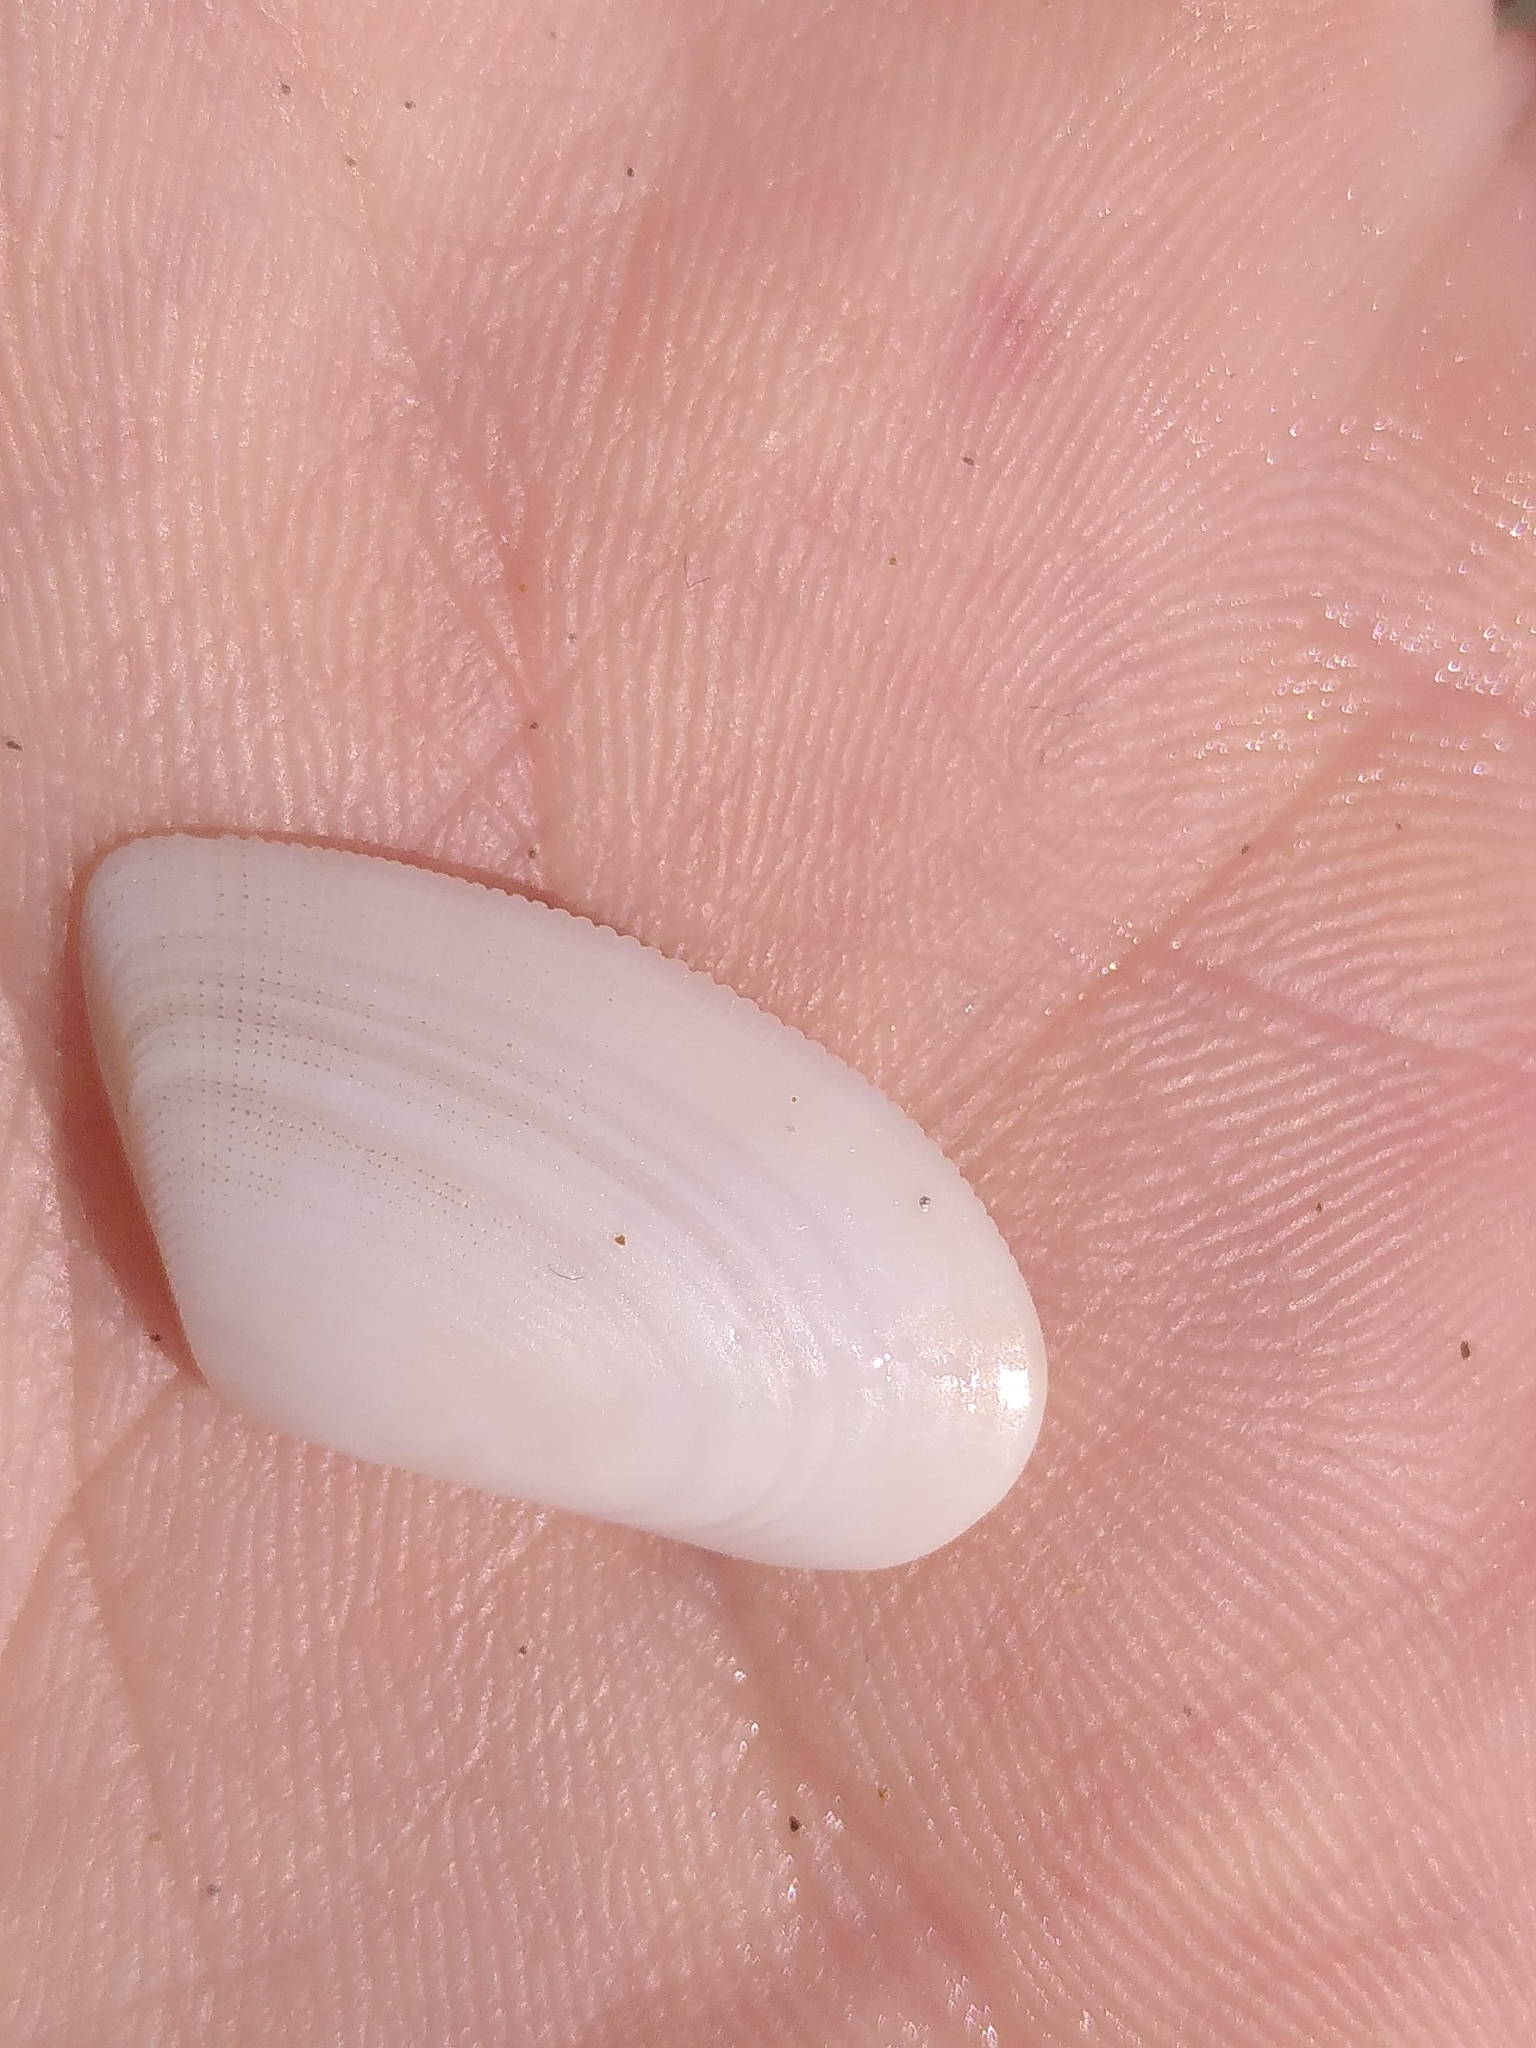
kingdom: Animalia
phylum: Mollusca
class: Bivalvia
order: Cardiida
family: Donacidae
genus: Donax
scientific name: Donax semistriatus
